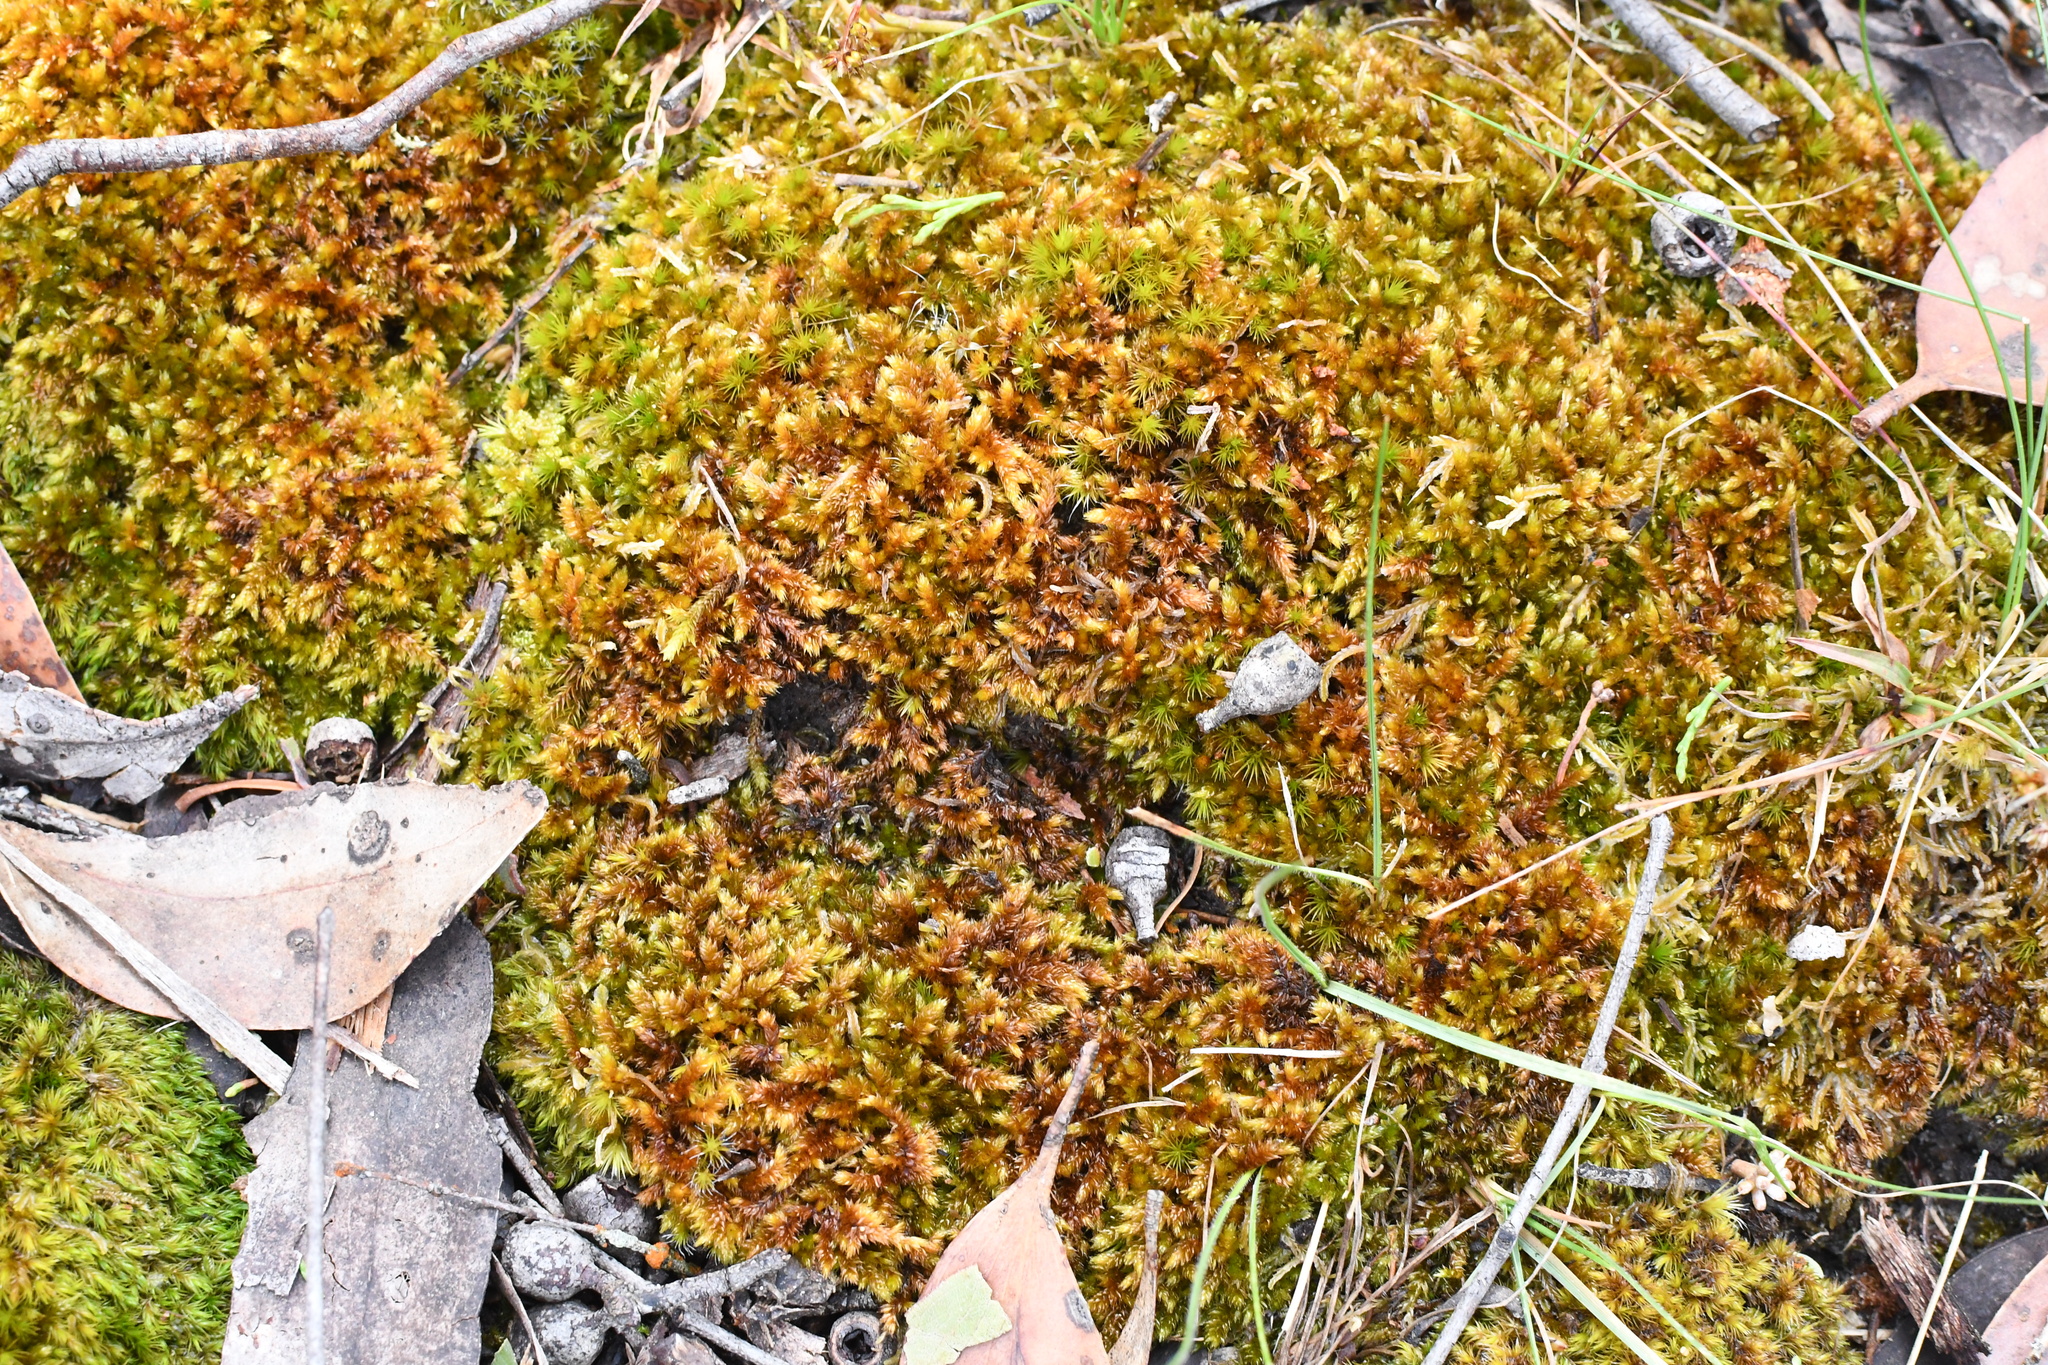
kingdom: Plantae
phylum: Bryophyta
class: Bryopsida
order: Hypnales
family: Sematophyllaceae
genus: Sematophyllum
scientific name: Sematophyllum homomallum
